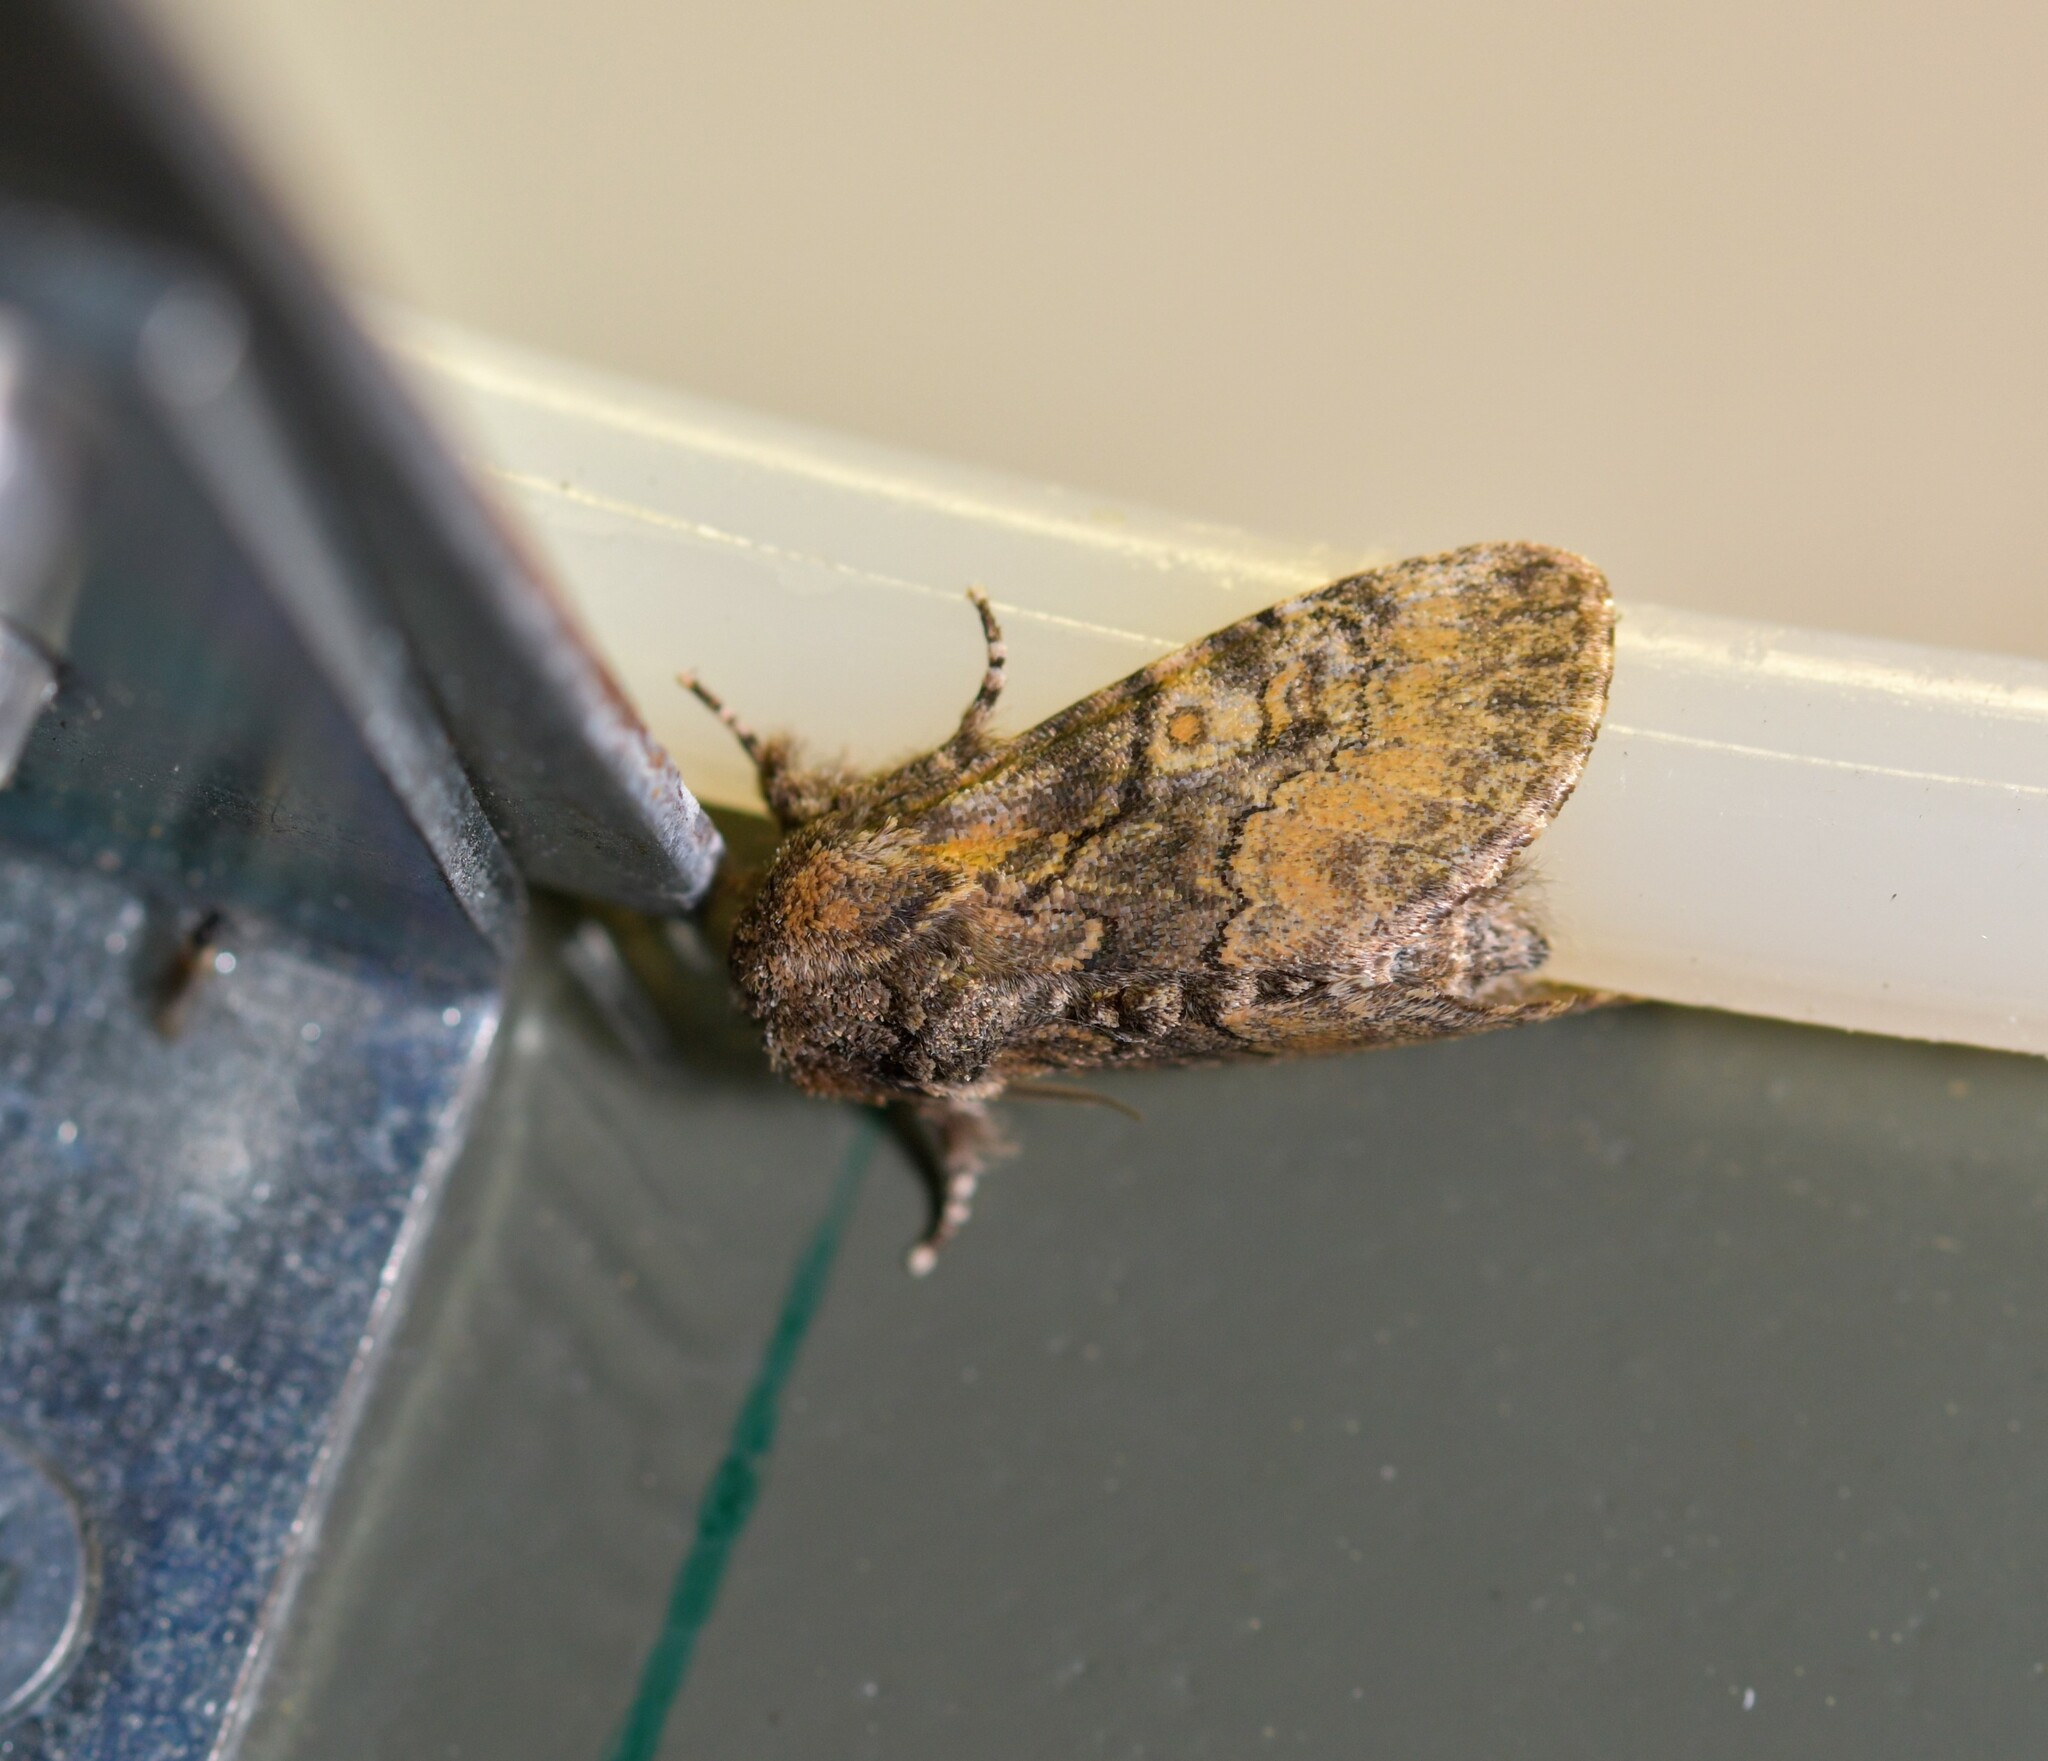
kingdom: Animalia
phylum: Arthropoda
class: Insecta
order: Lepidoptera
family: Noctuidae
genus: Raphia
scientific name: Raphia hybris
